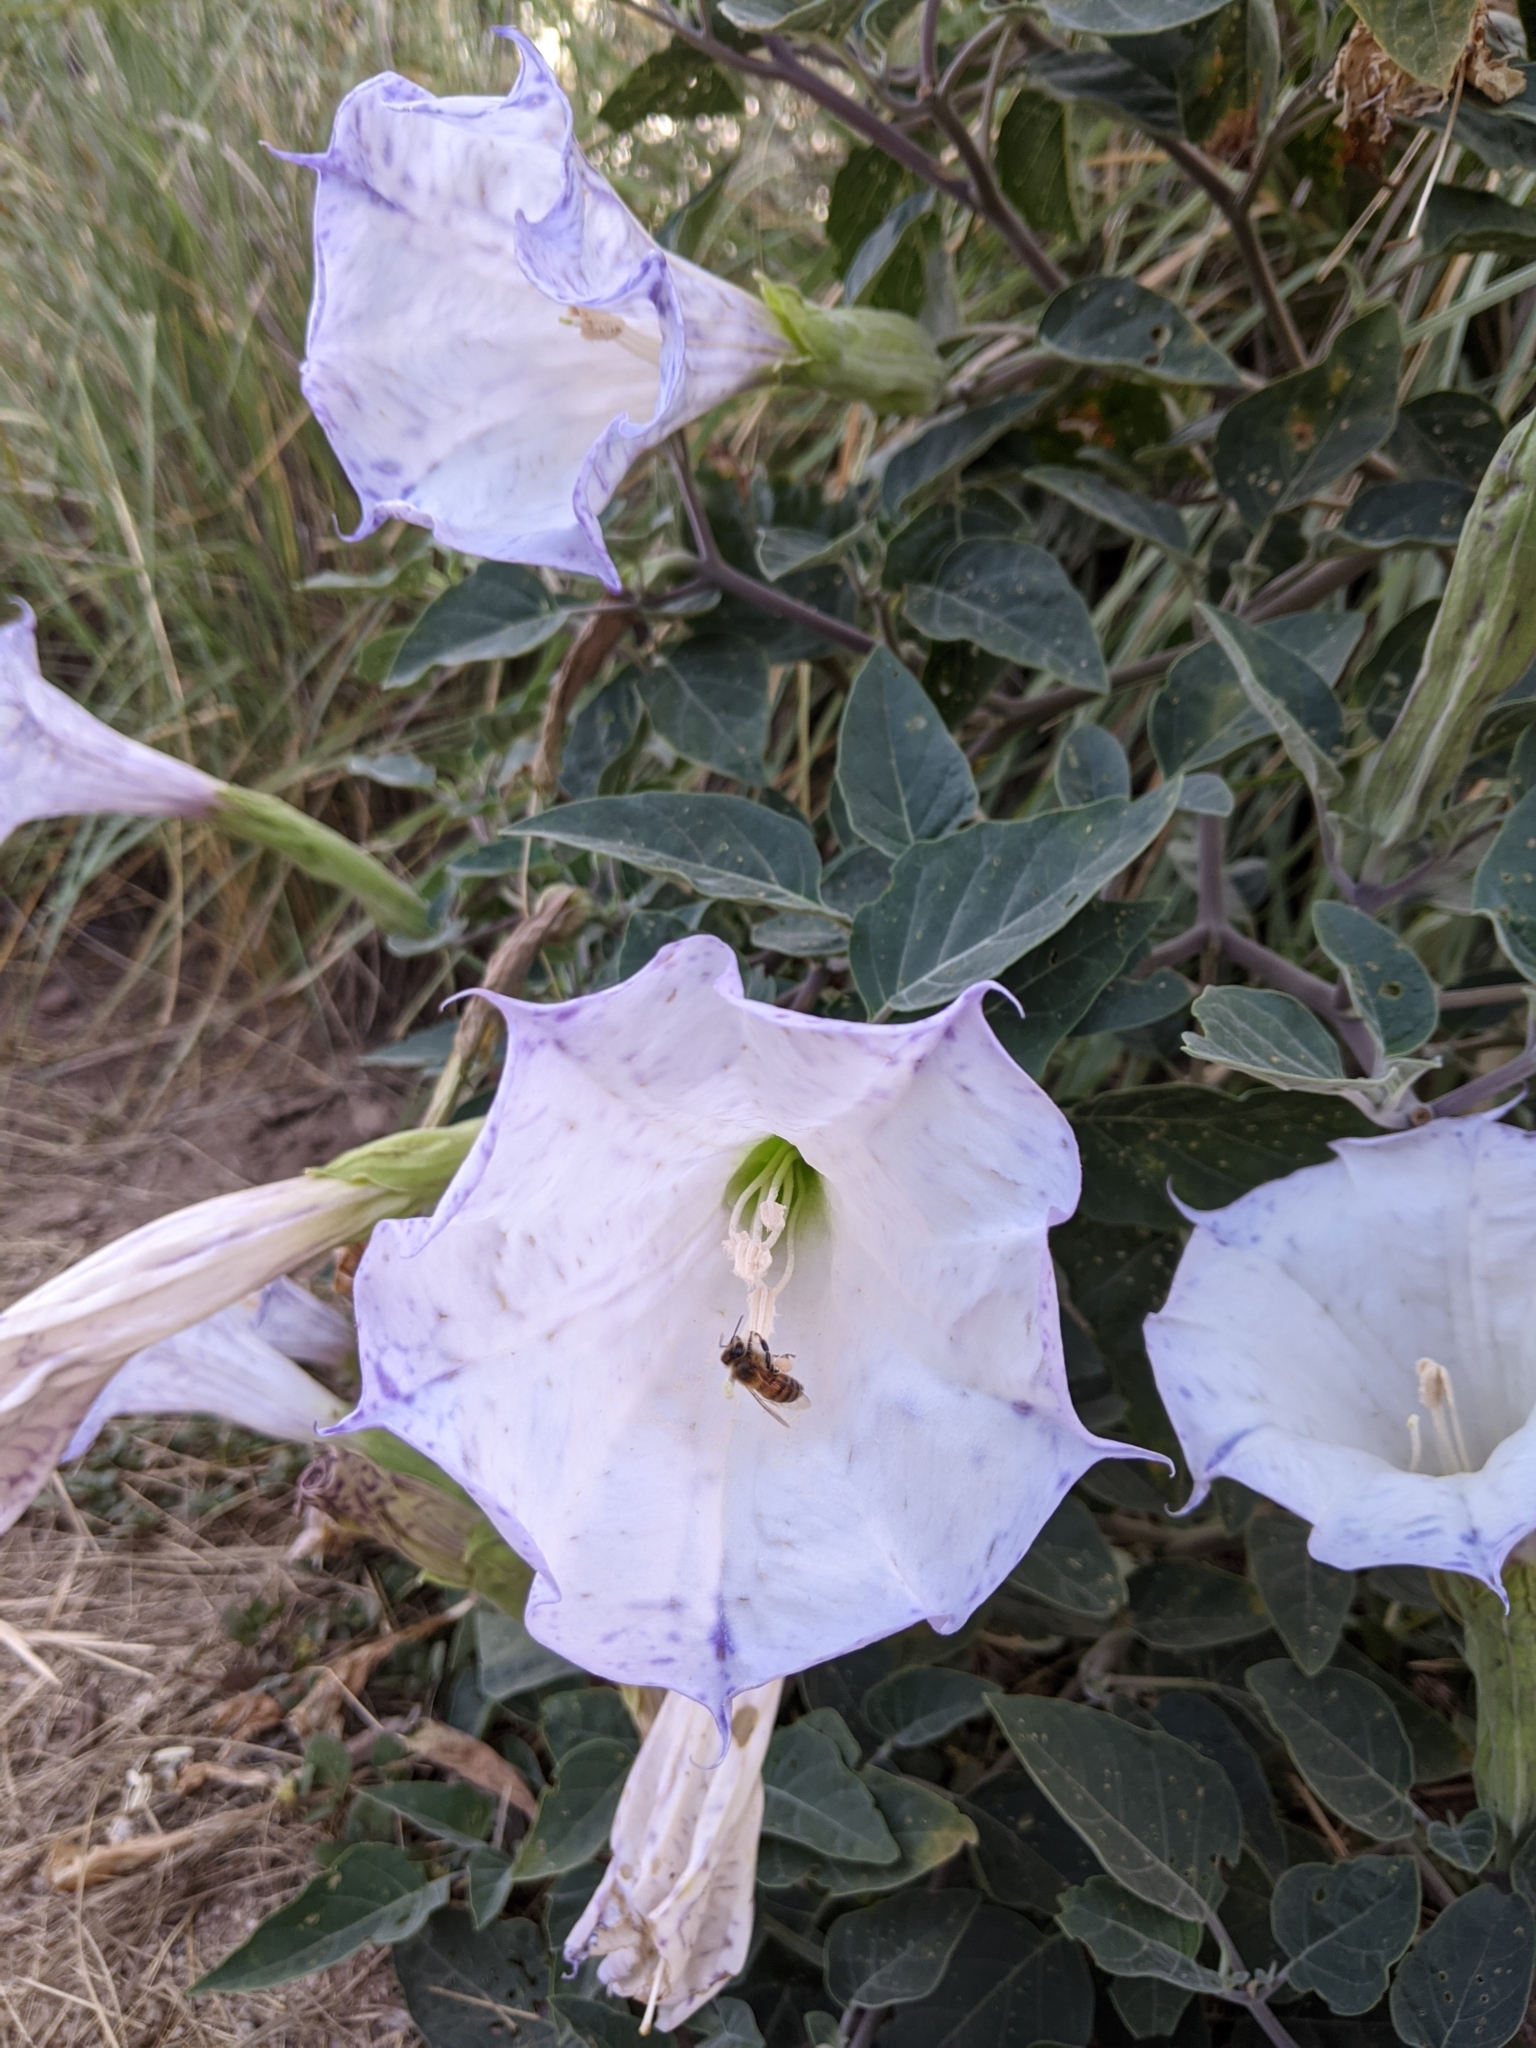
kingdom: Plantae
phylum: Tracheophyta
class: Magnoliopsida
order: Solanales
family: Solanaceae
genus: Datura
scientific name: Datura wrightii
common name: Sacred thorn-apple
